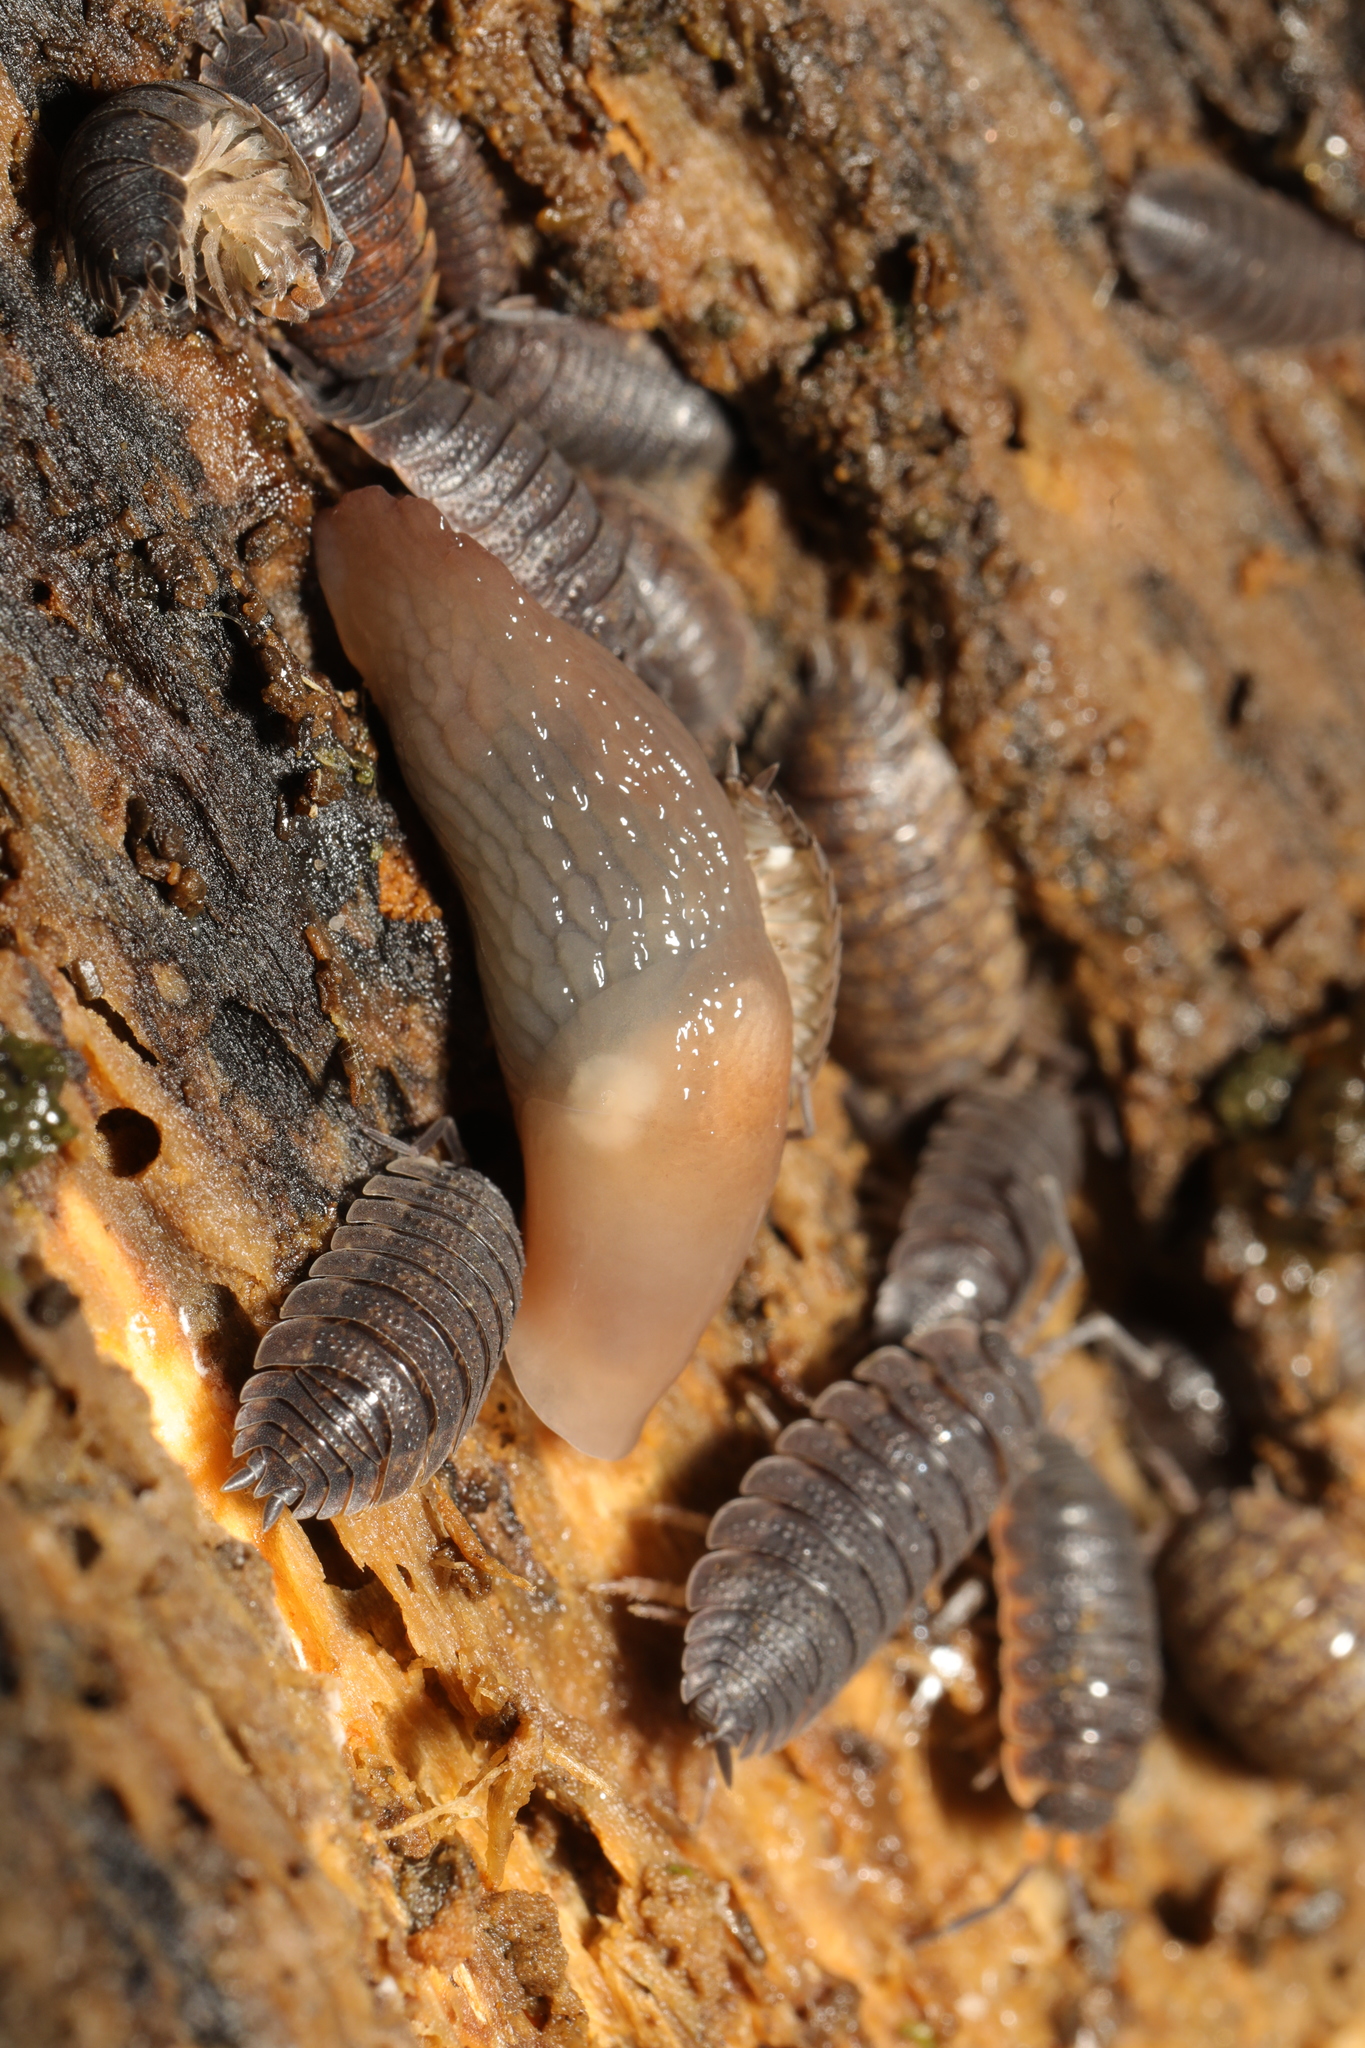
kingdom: Animalia
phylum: Mollusca
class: Gastropoda
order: Stylommatophora
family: Agriolimacidae
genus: Deroceras
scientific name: Deroceras invadens
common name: Caruana's slug
